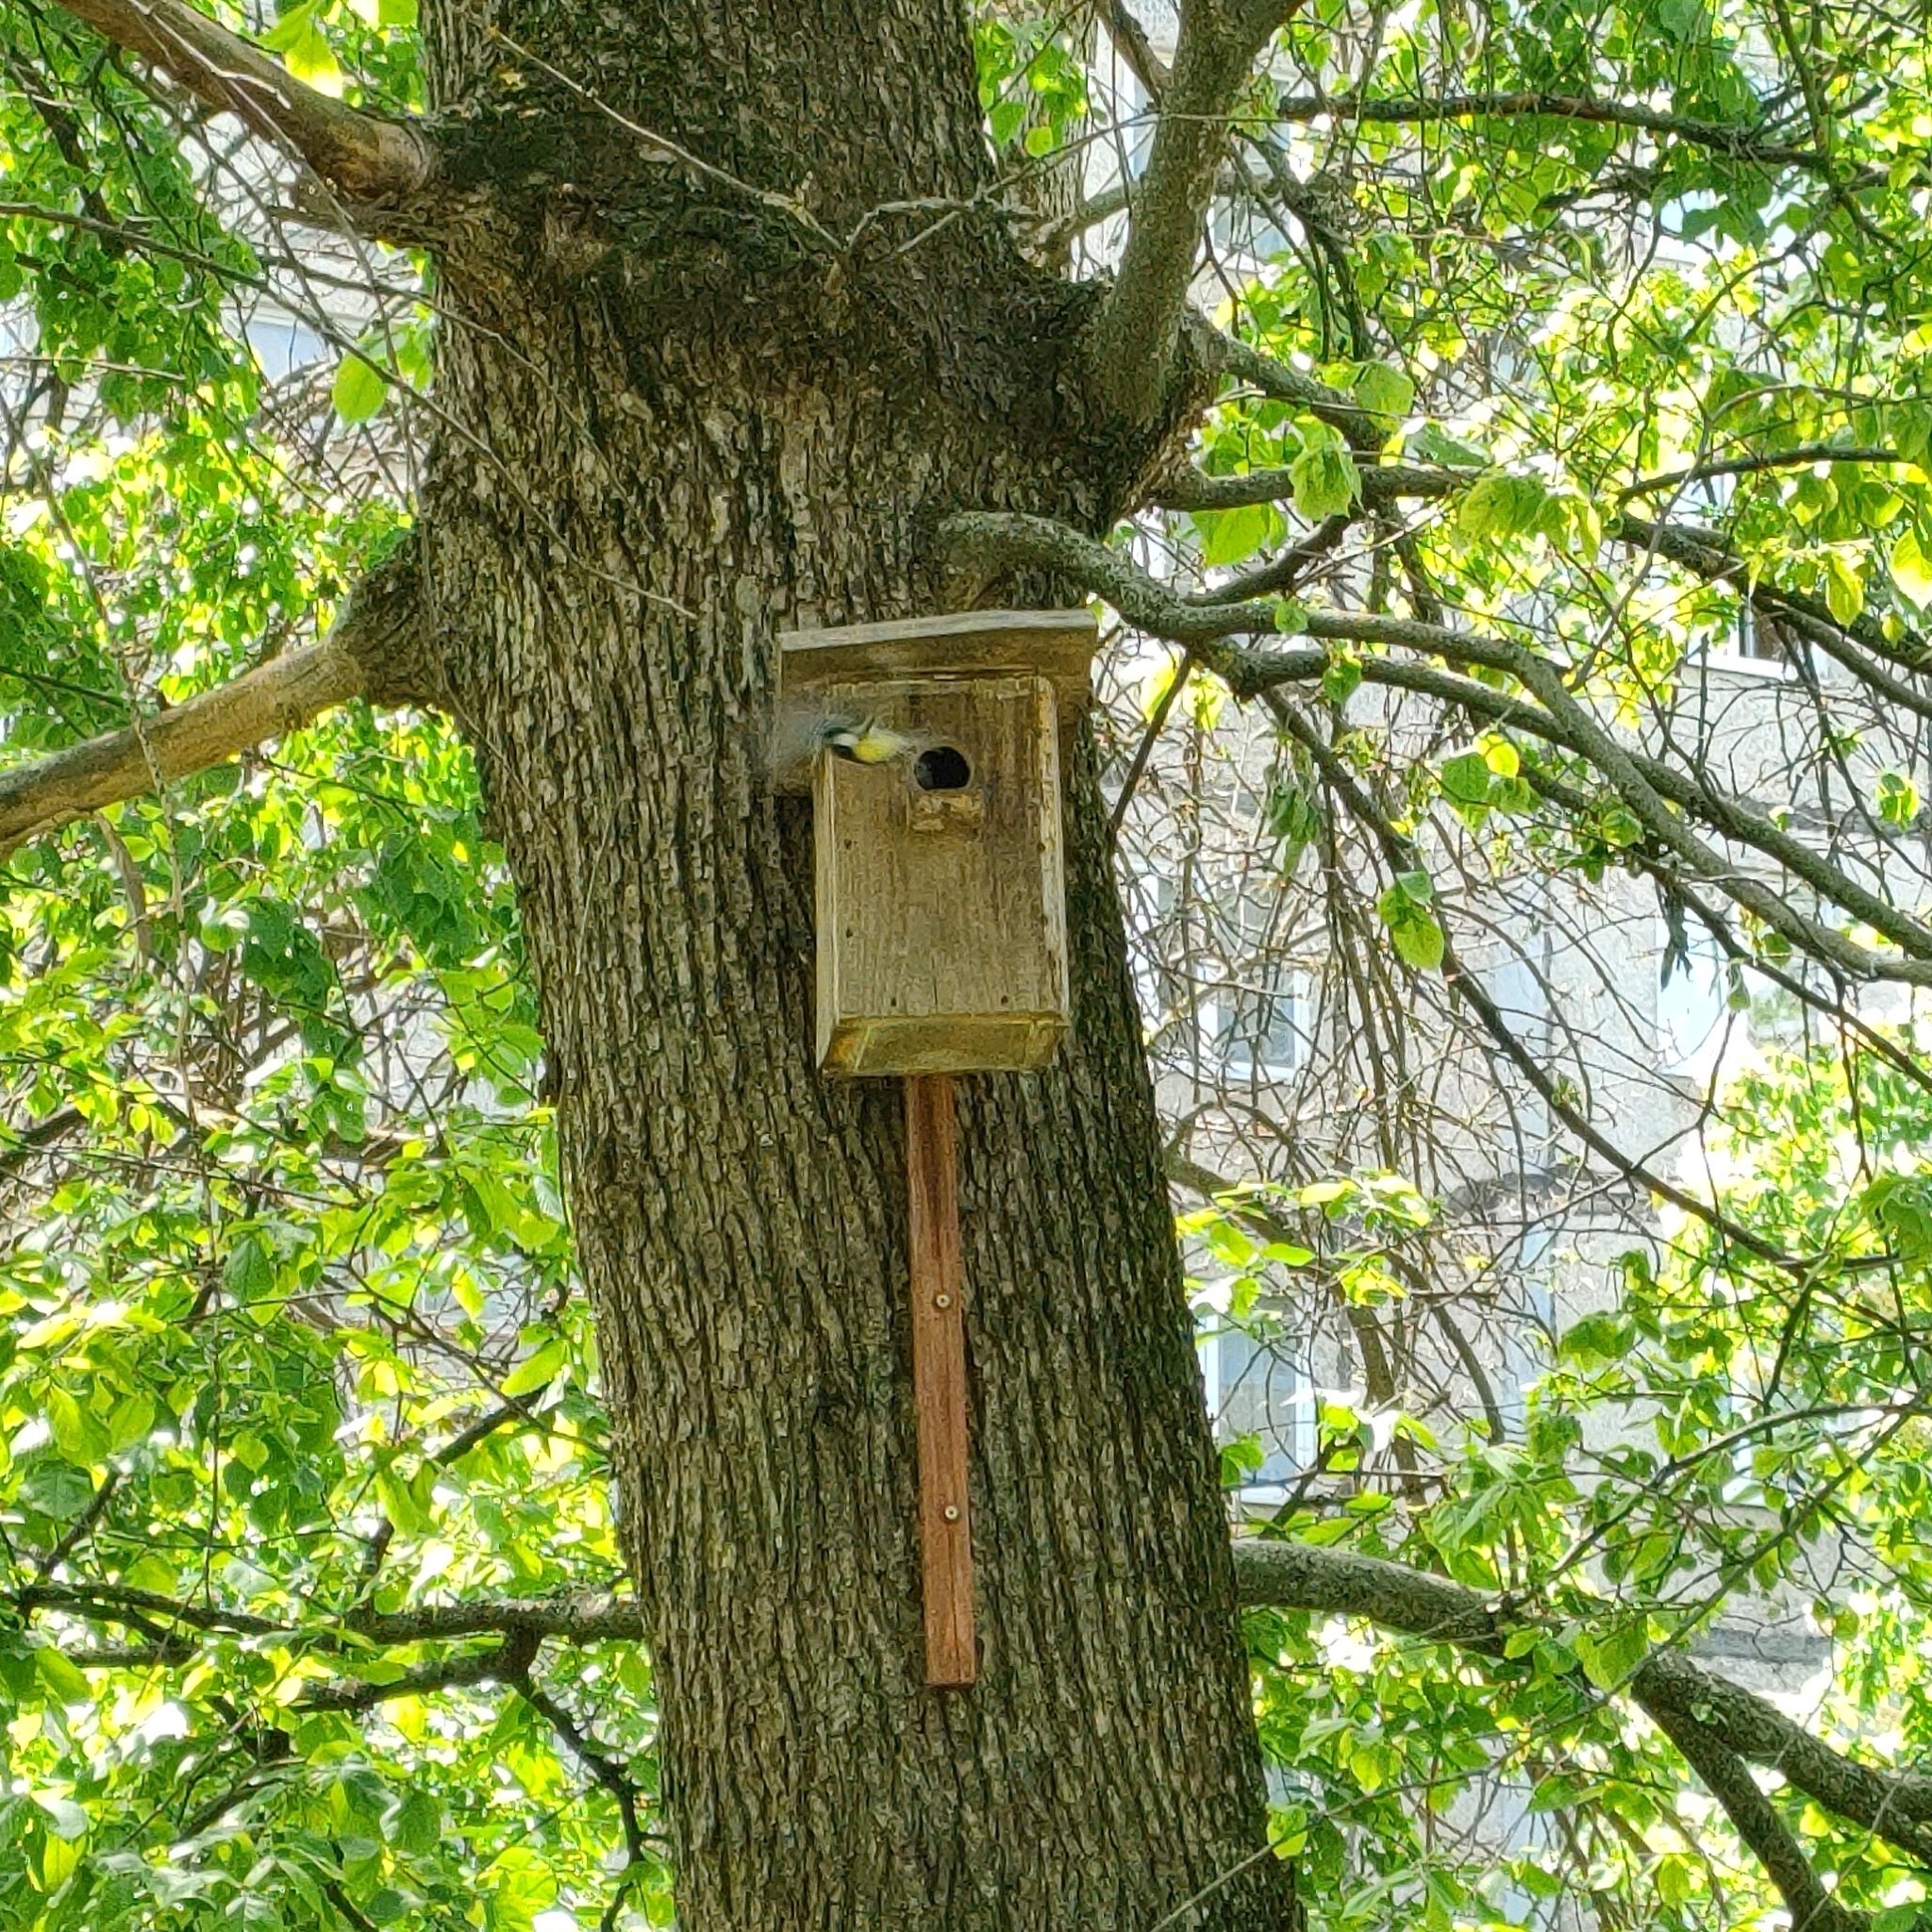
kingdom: Animalia
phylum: Chordata
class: Aves
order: Passeriformes
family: Paridae
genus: Parus
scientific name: Parus major
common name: Great tit
